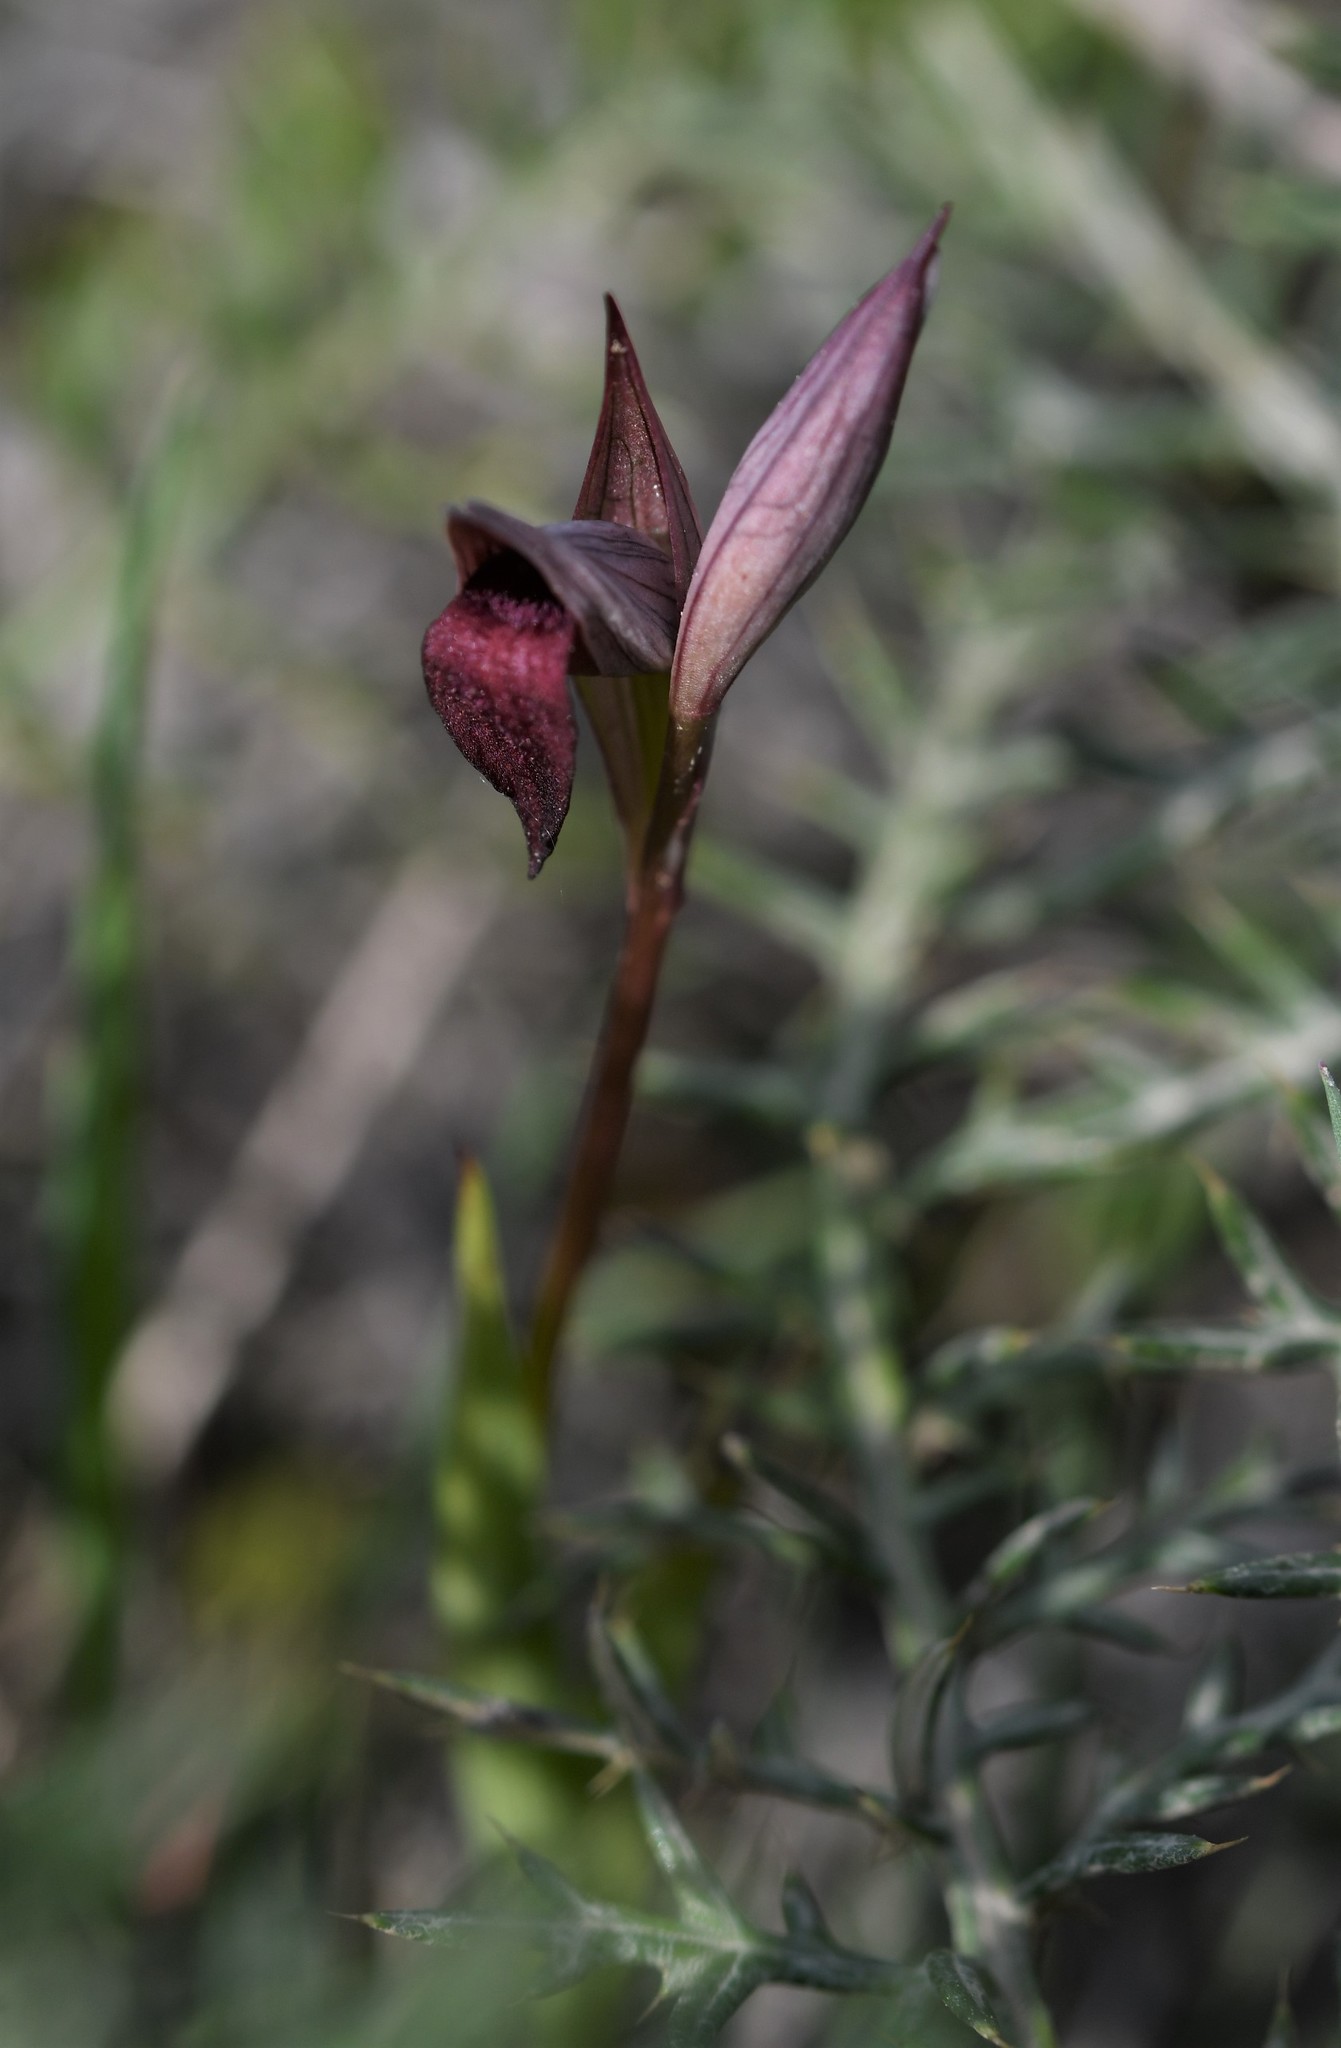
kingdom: Plantae
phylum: Tracheophyta
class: Liliopsida
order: Asparagales
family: Orchidaceae
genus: Serapias
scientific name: Serapias lingua
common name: Tongue-orchid
